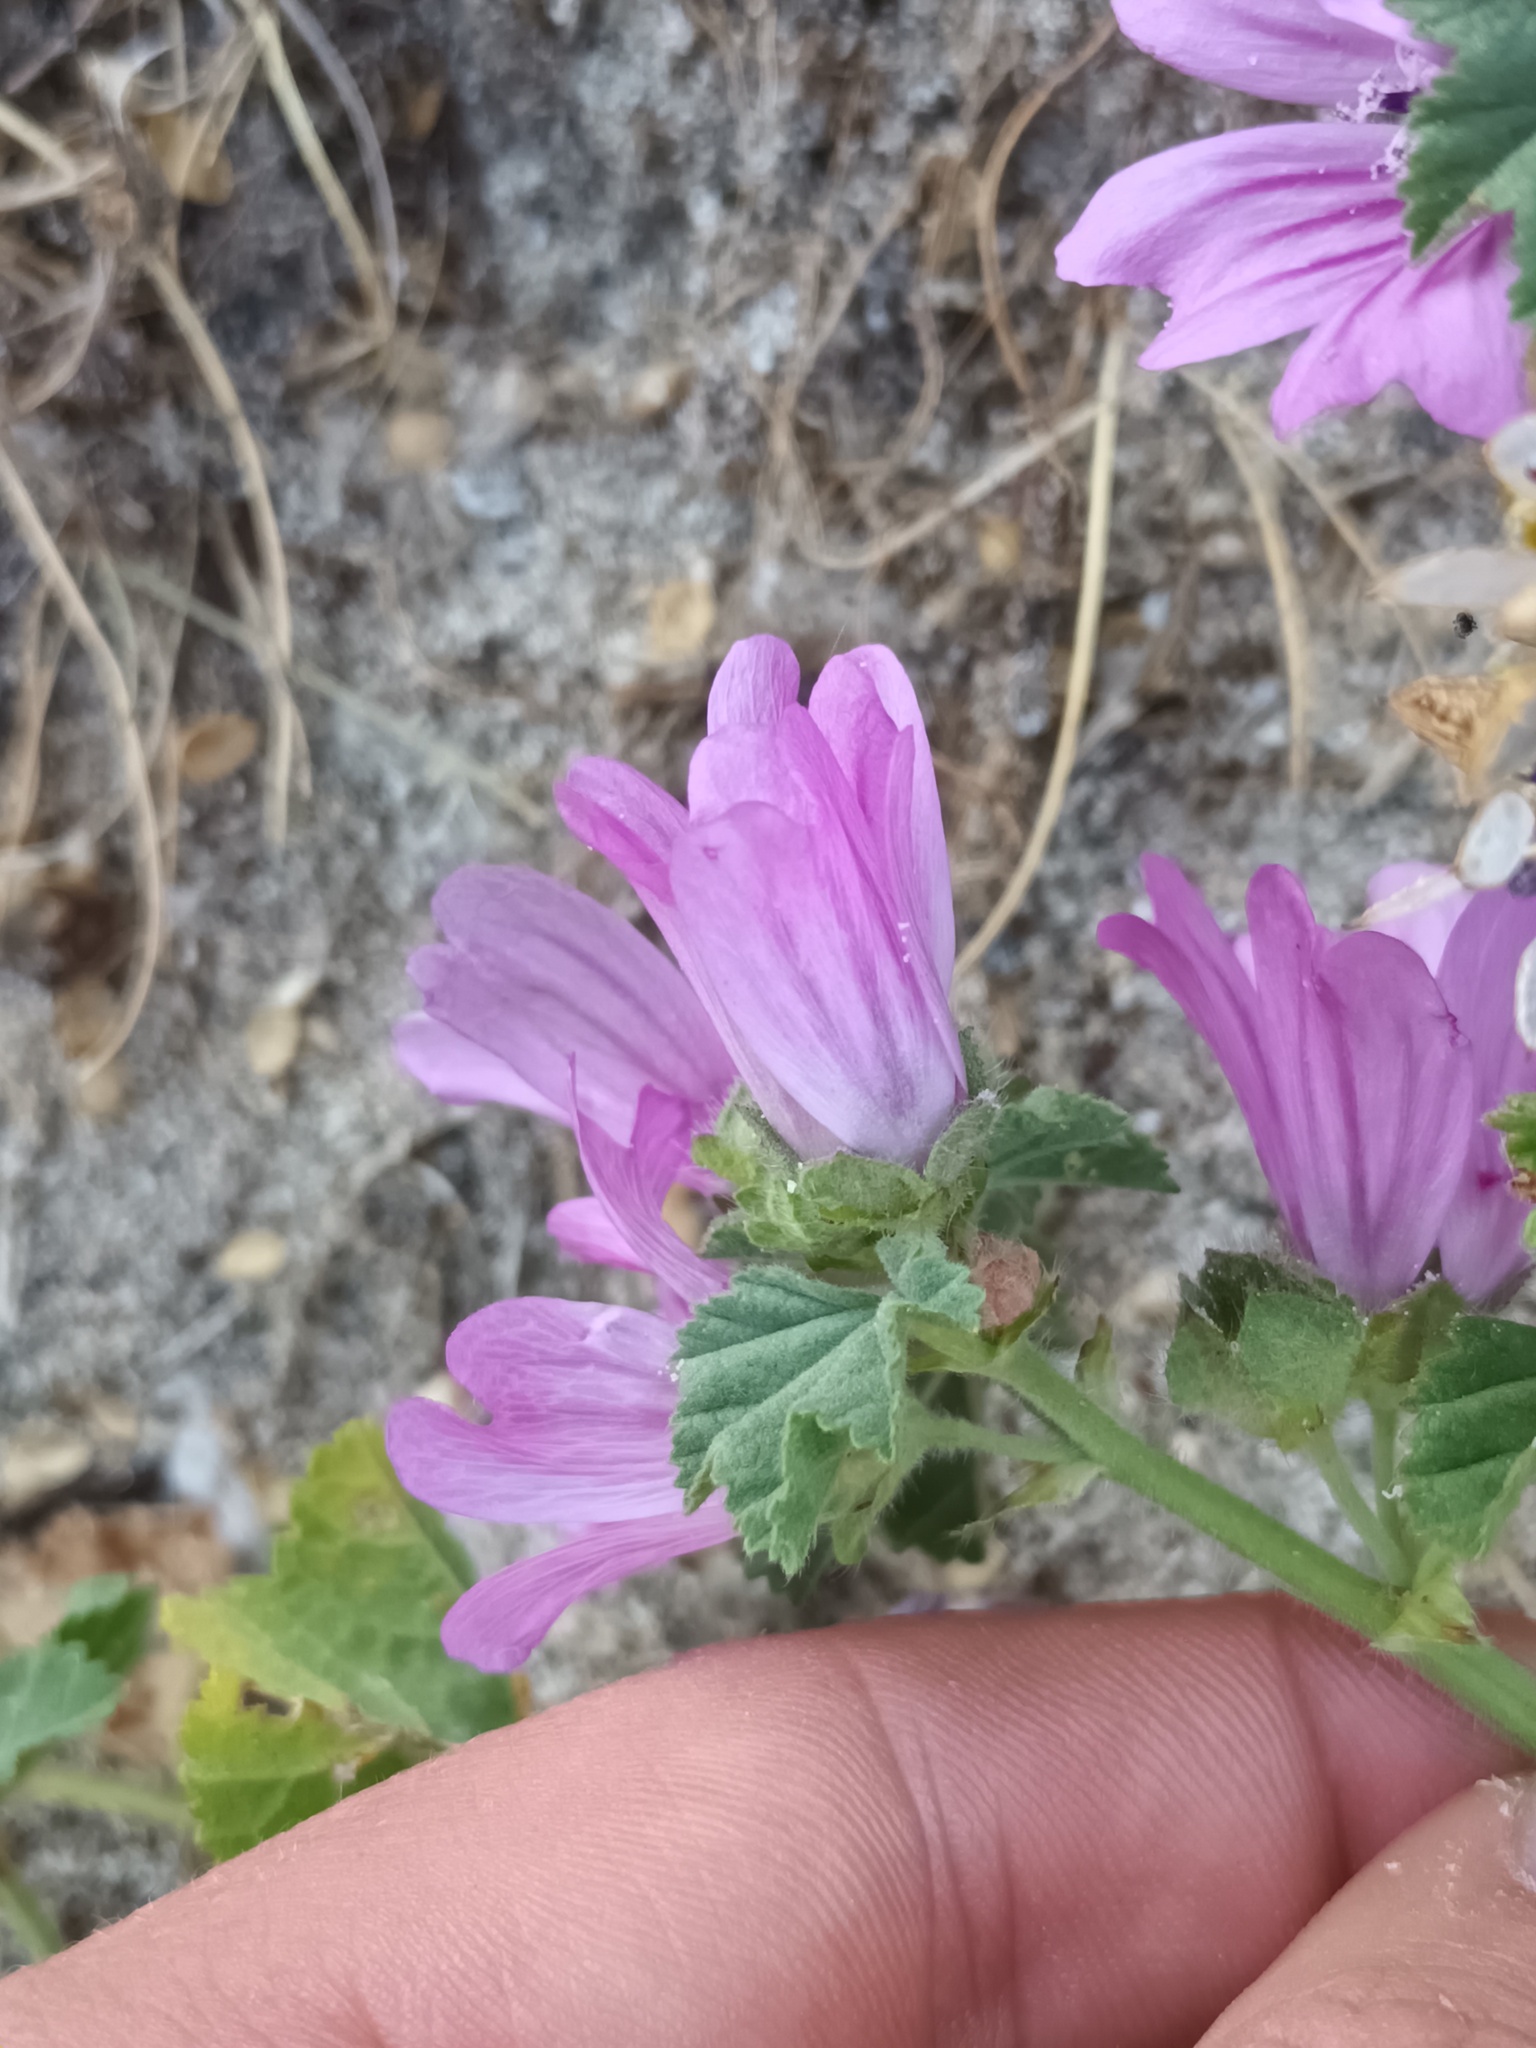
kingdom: Plantae
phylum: Tracheophyta
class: Magnoliopsida
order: Malvales
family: Malvaceae
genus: Malva
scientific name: Malva sylvestris
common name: Common mallow
